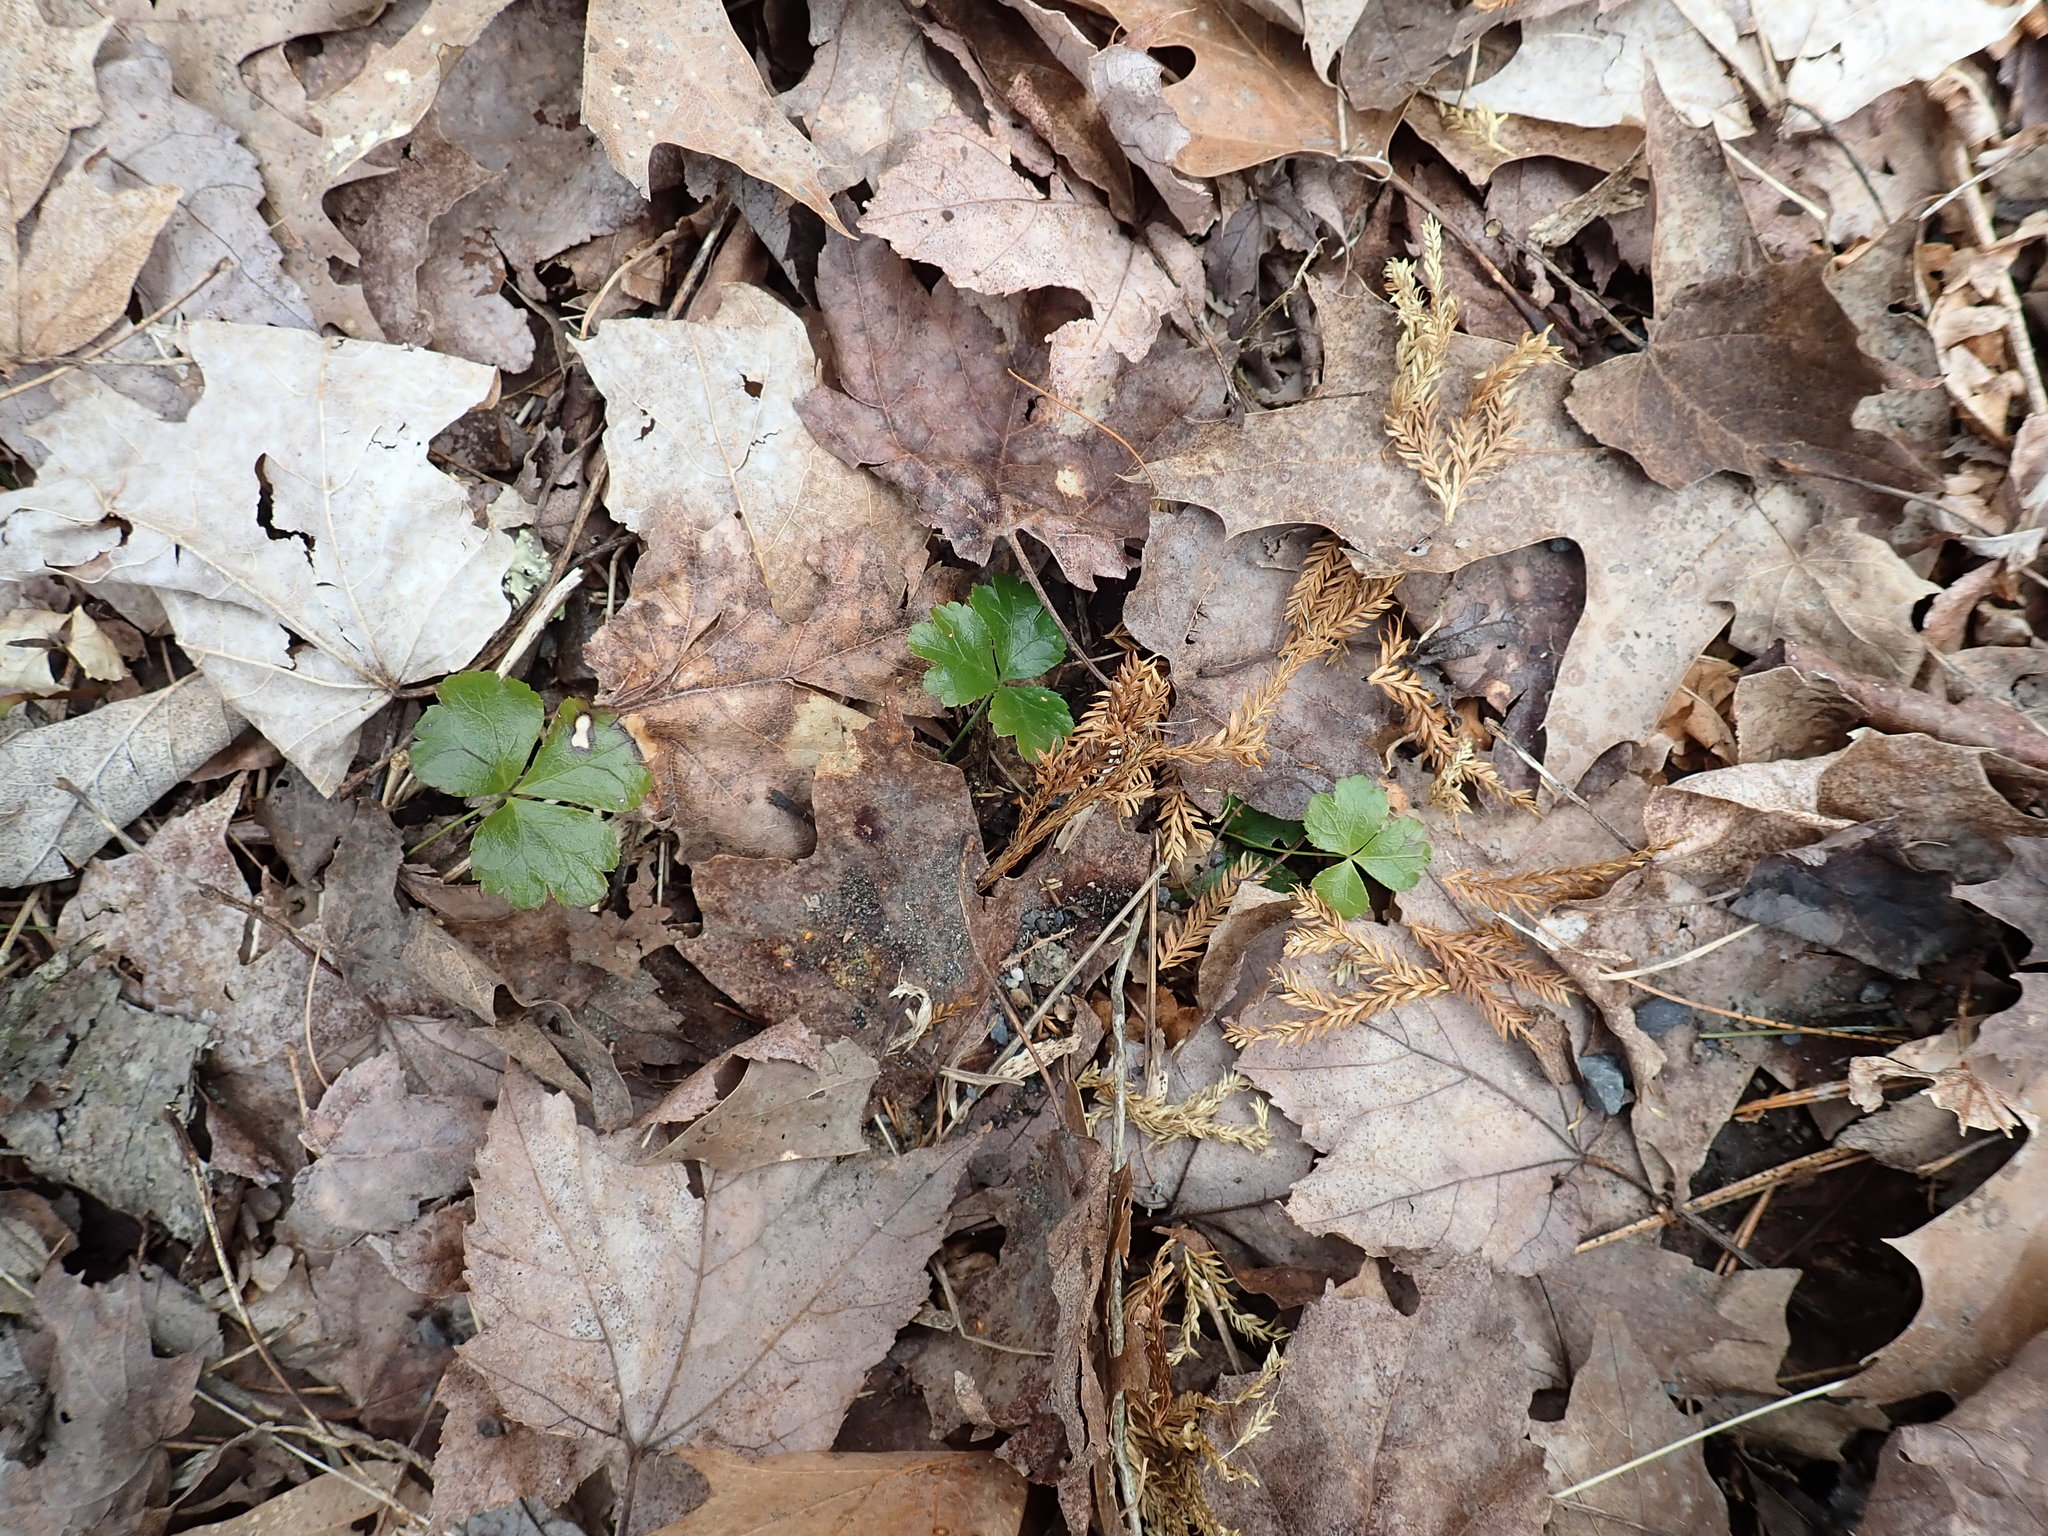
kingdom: Plantae
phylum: Tracheophyta
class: Magnoliopsida
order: Ranunculales
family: Ranunculaceae
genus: Coptis
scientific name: Coptis trifolia
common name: Canker-root
